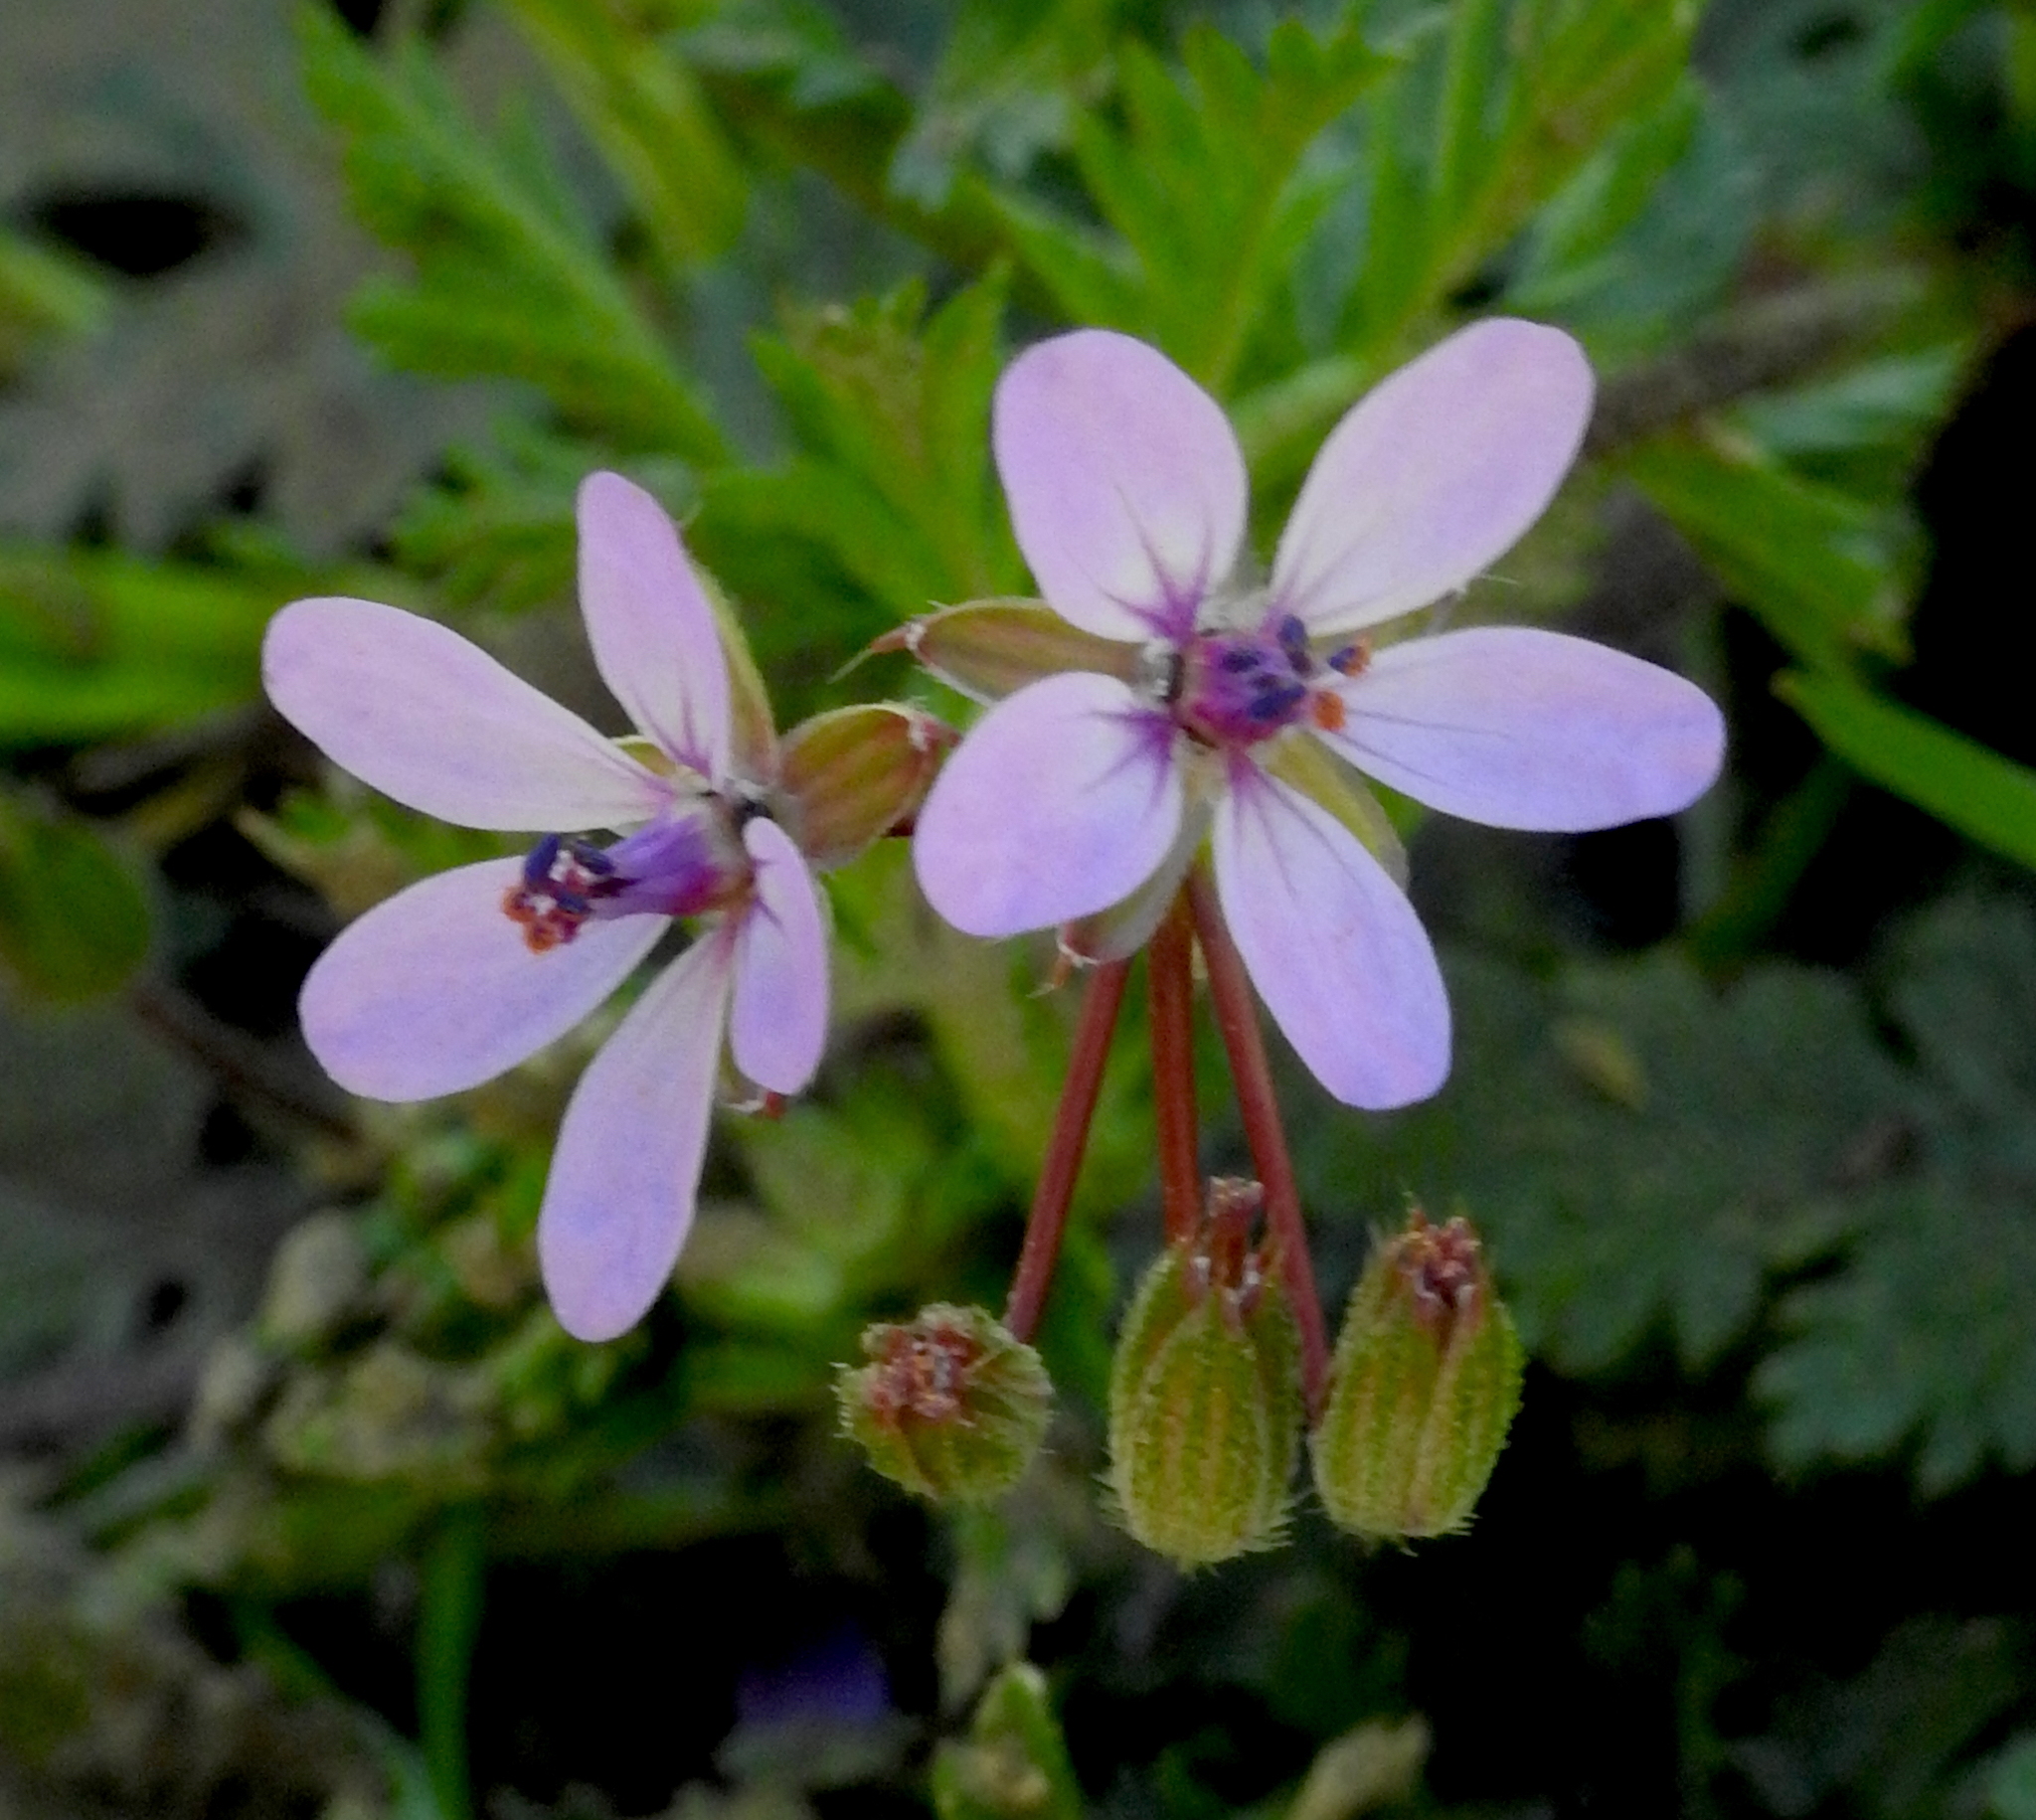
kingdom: Plantae
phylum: Tracheophyta
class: Magnoliopsida
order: Geraniales
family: Geraniaceae
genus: Erodium
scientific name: Erodium cicutarium
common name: Common stork's-bill
